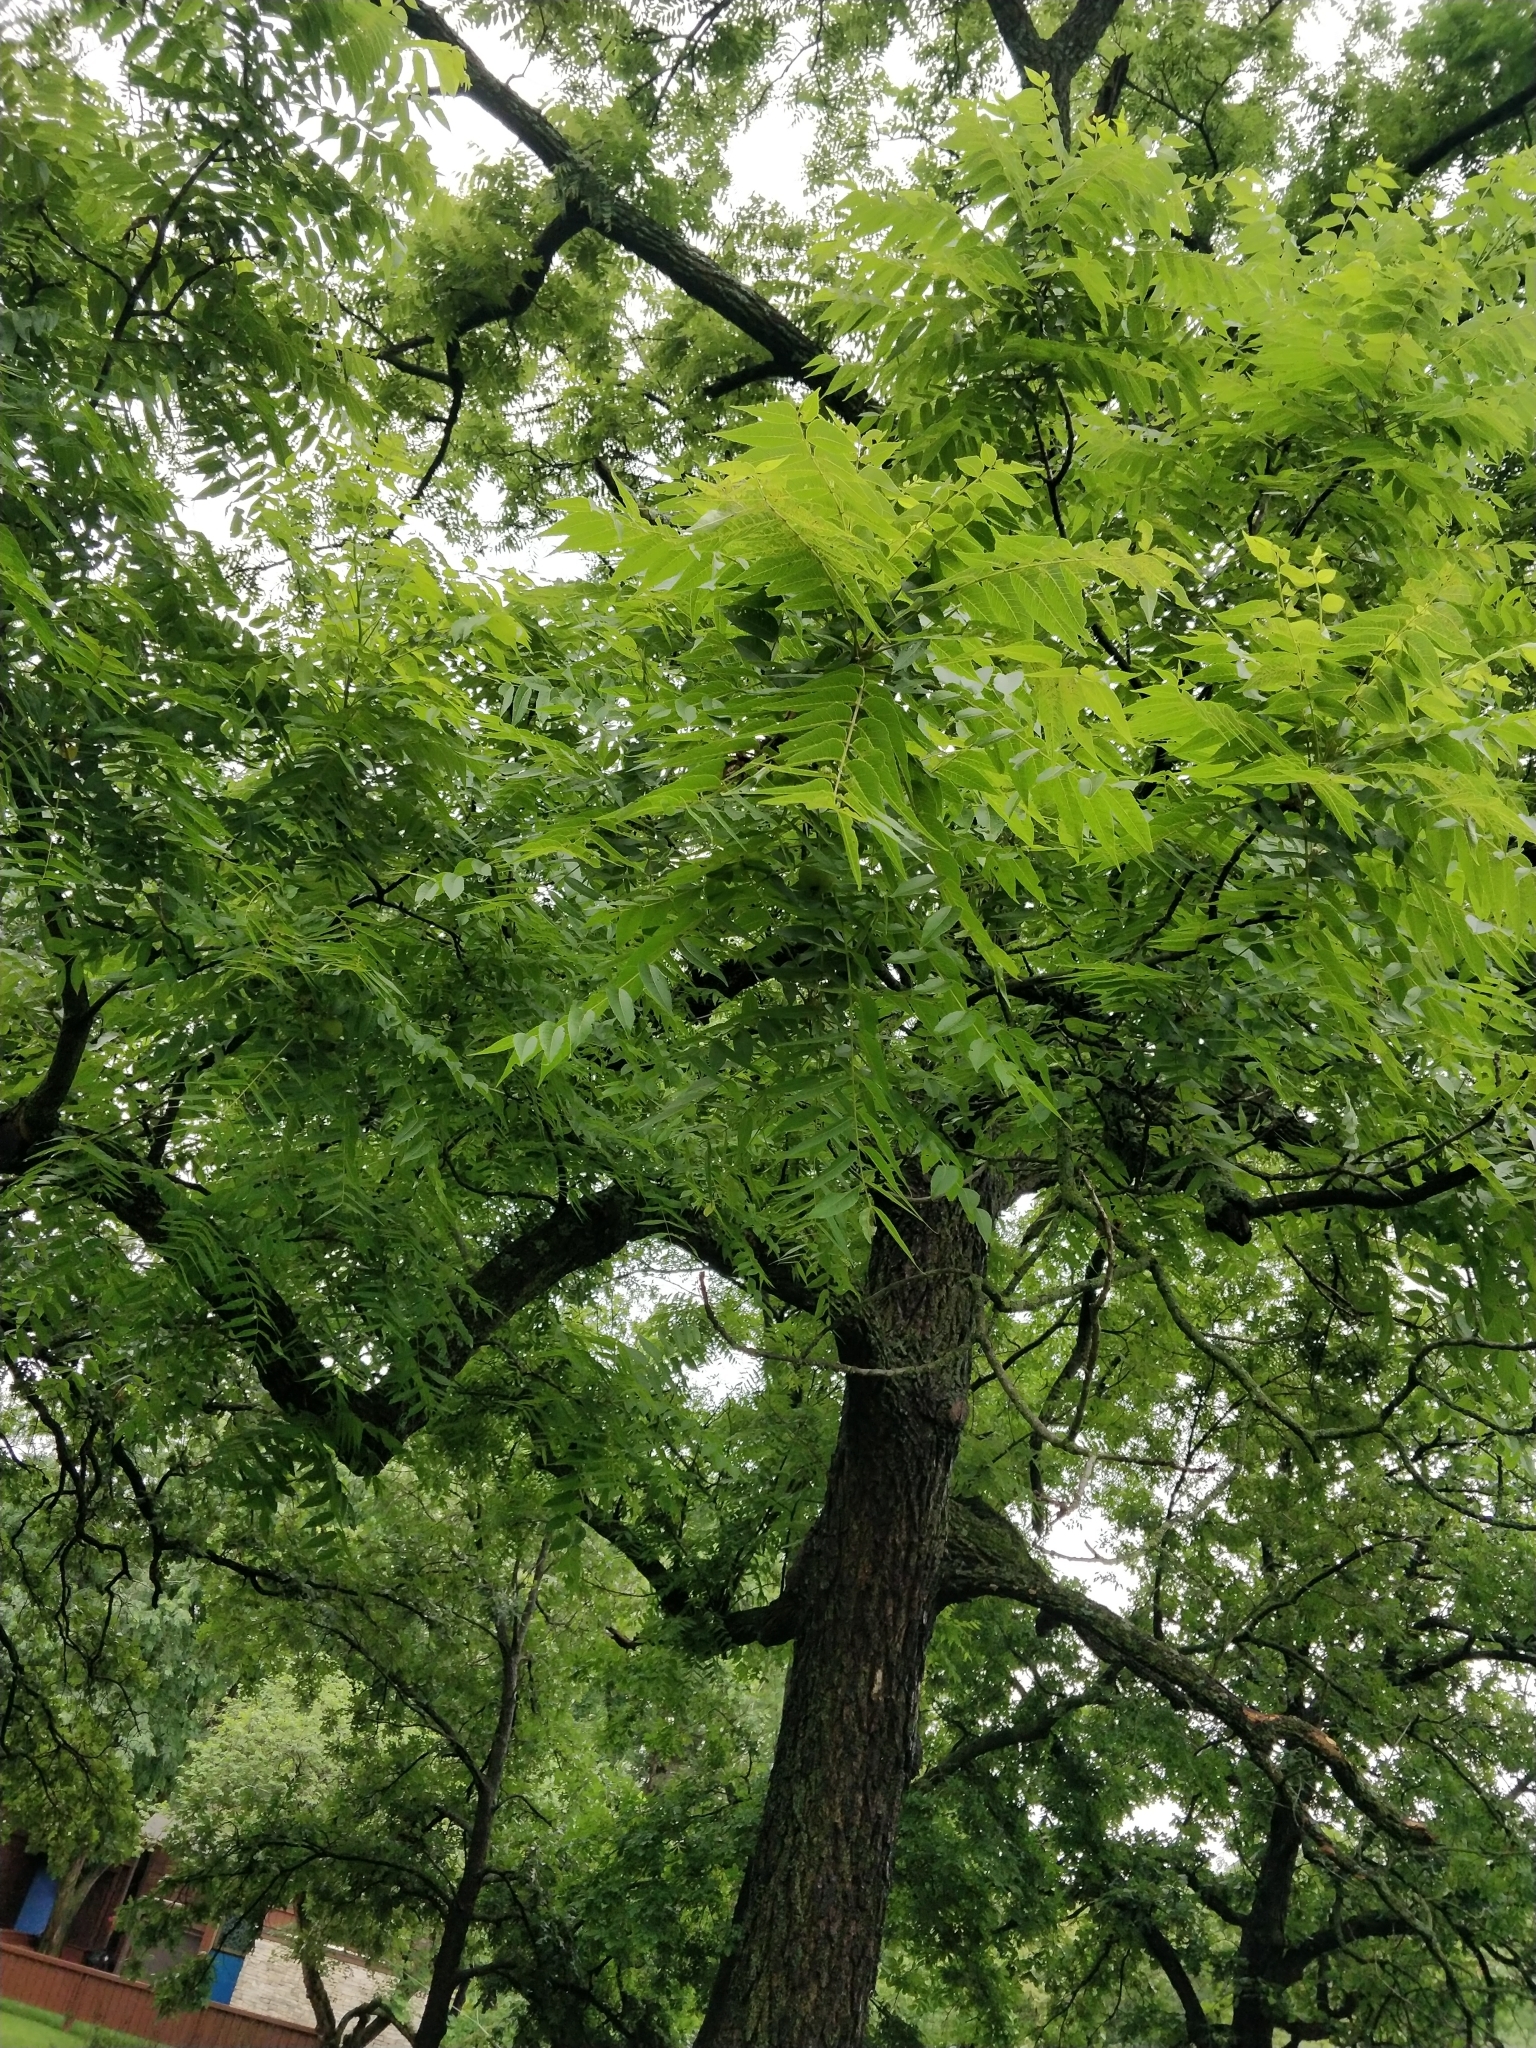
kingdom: Plantae
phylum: Tracheophyta
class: Magnoliopsida
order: Fagales
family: Juglandaceae
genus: Juglans
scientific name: Juglans nigra
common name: Black walnut
